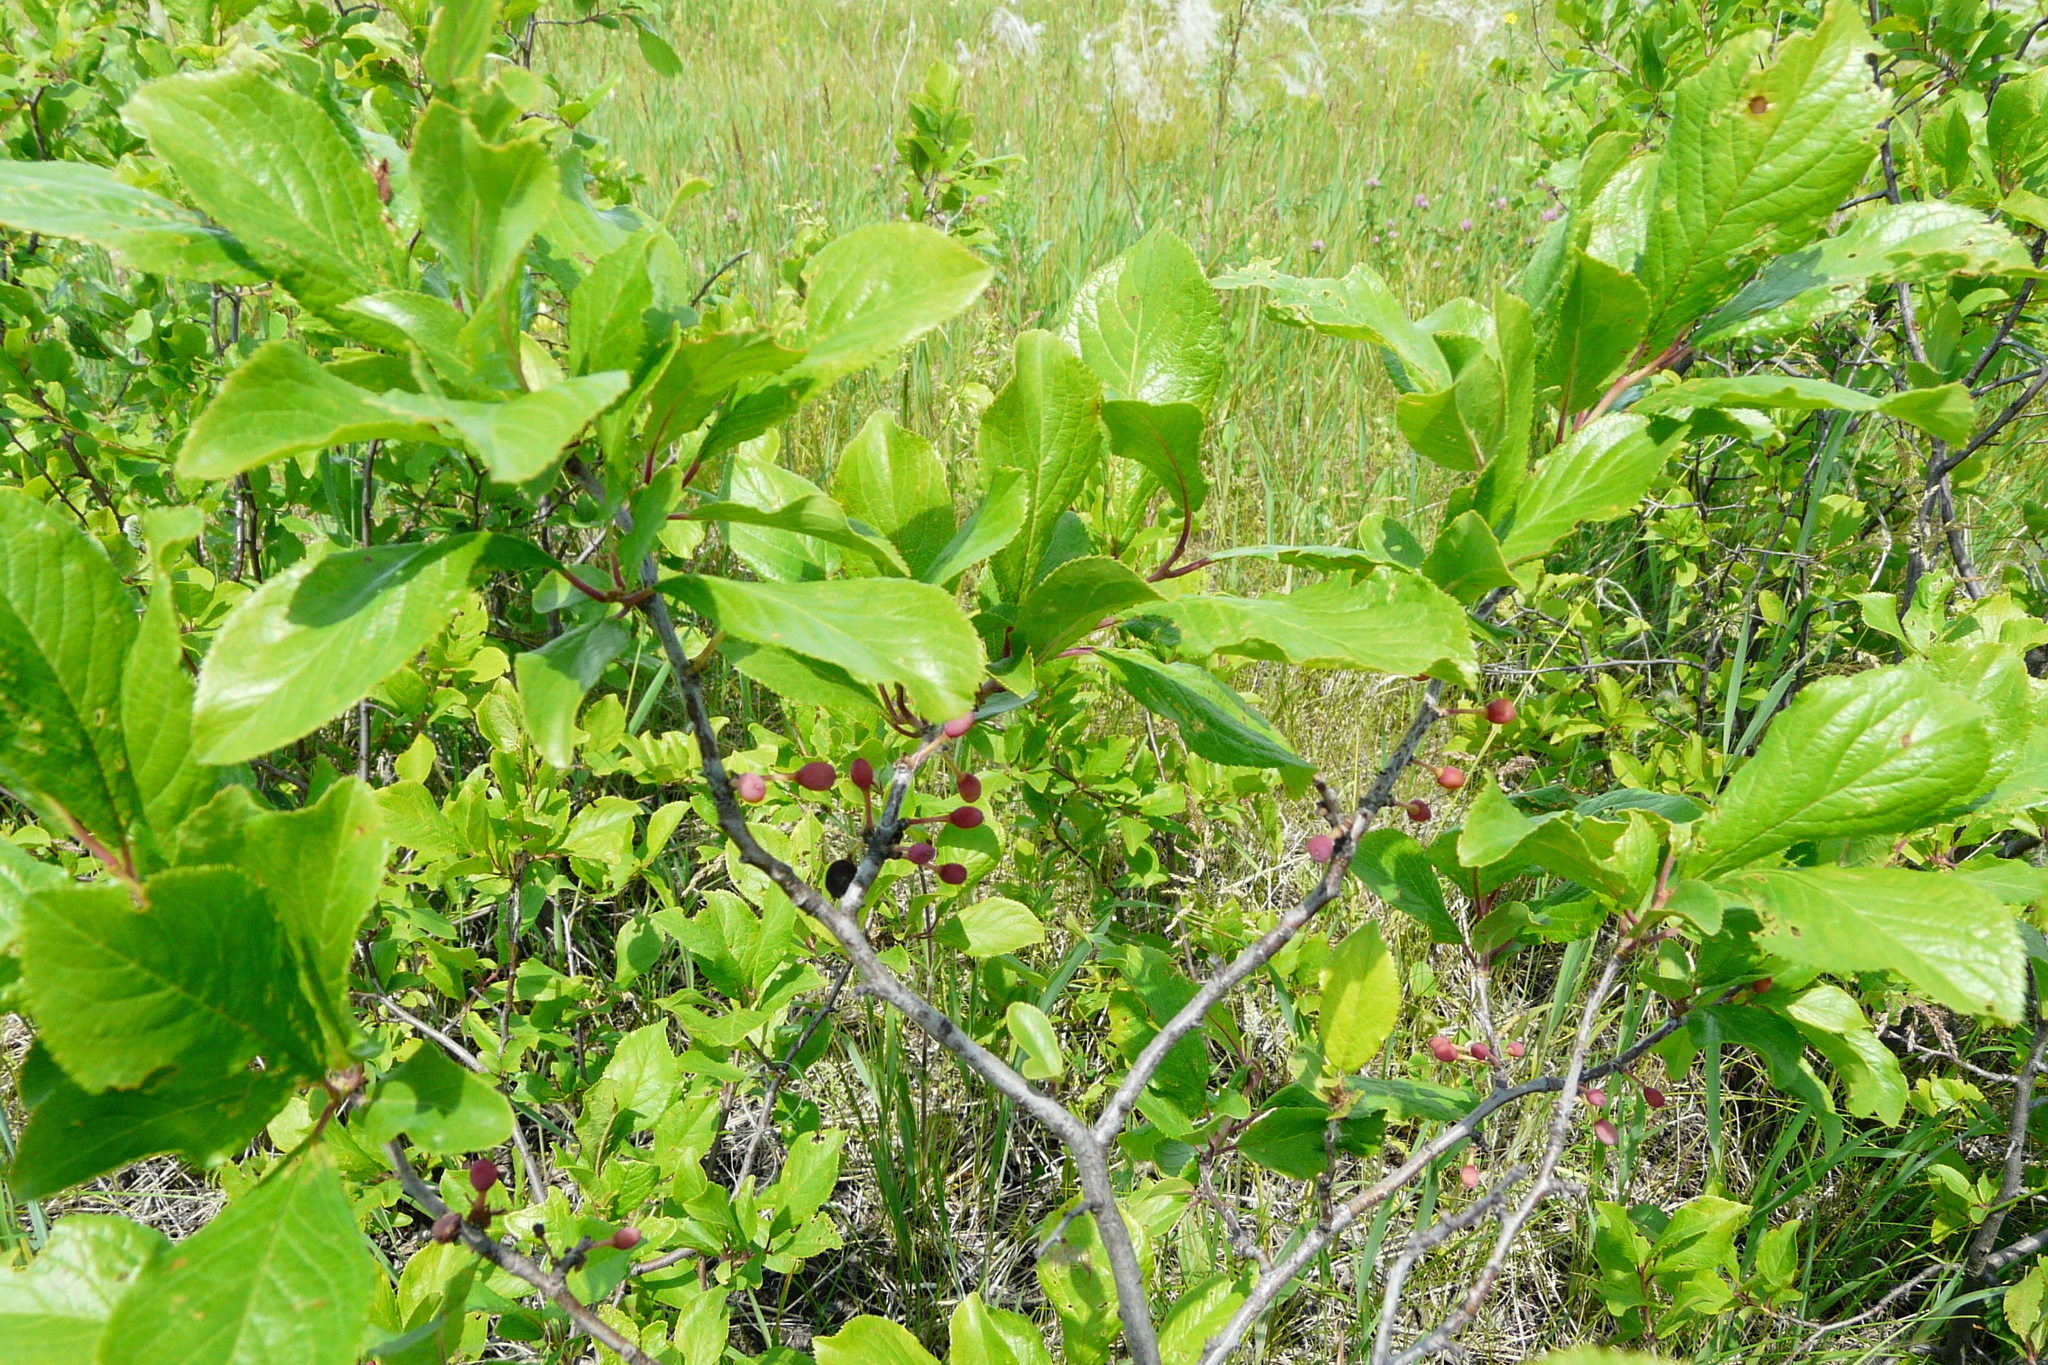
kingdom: Plantae
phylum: Tracheophyta
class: Magnoliopsida
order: Rosales
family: Rosaceae
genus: Prunus
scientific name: Prunus spinosa
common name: Blackthorn
